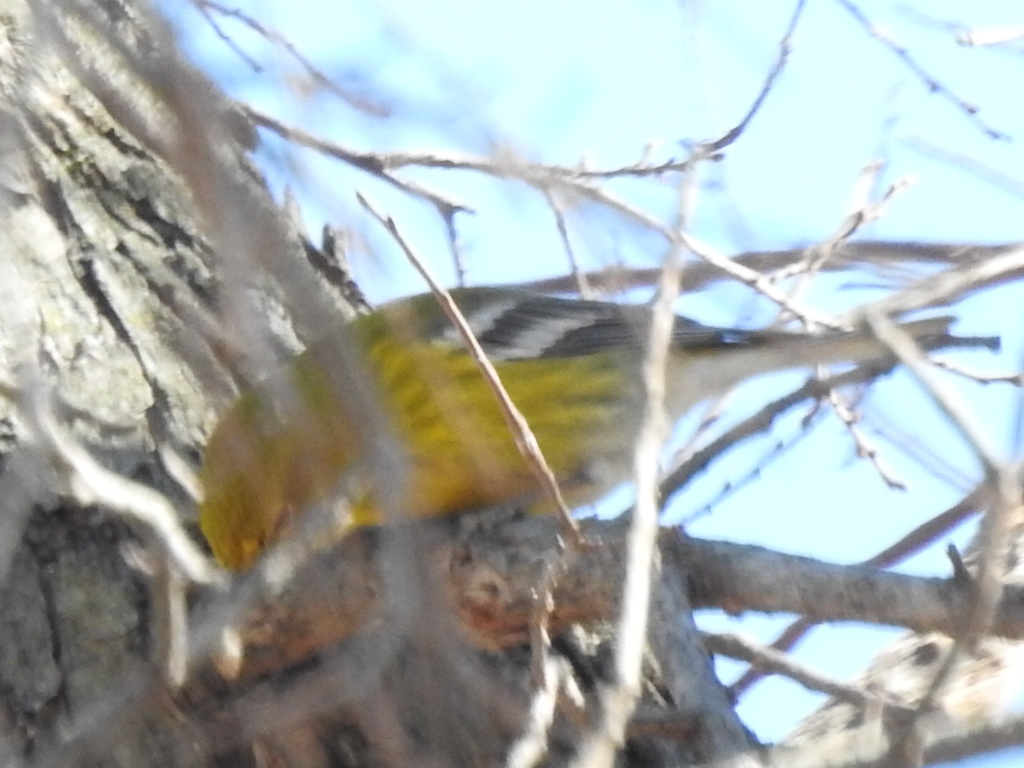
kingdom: Animalia
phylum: Chordata
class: Aves
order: Passeriformes
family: Parulidae
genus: Setophaga
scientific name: Setophaga pinus
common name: Pine warbler
